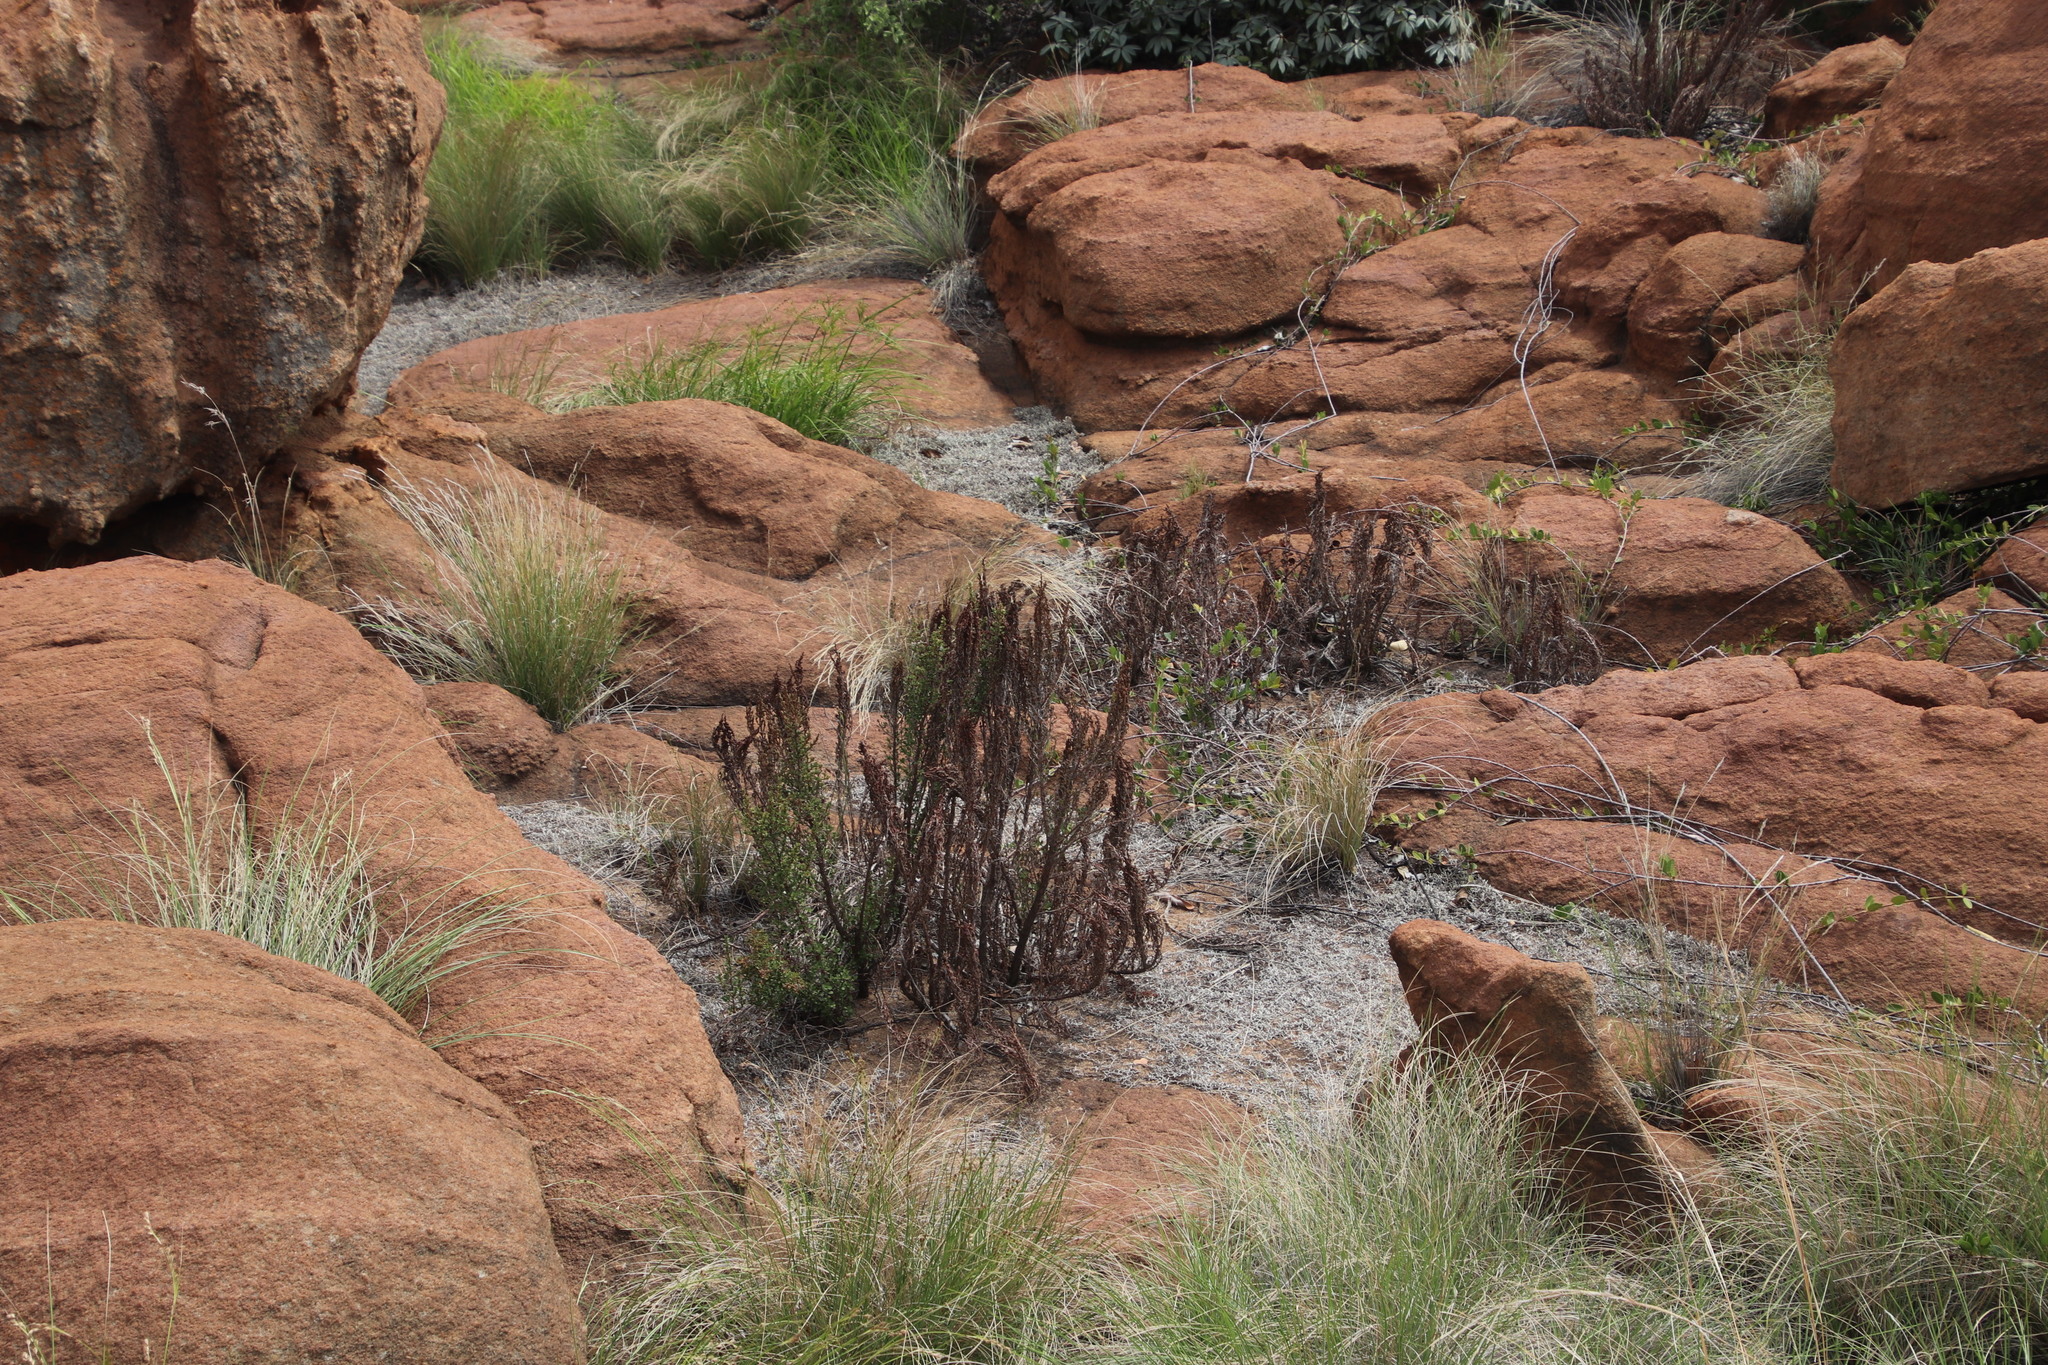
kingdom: Plantae
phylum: Tracheophyta
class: Magnoliopsida
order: Gunnerales
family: Myrothamnaceae
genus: Myrothamnus
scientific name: Myrothamnus flabellifolius
